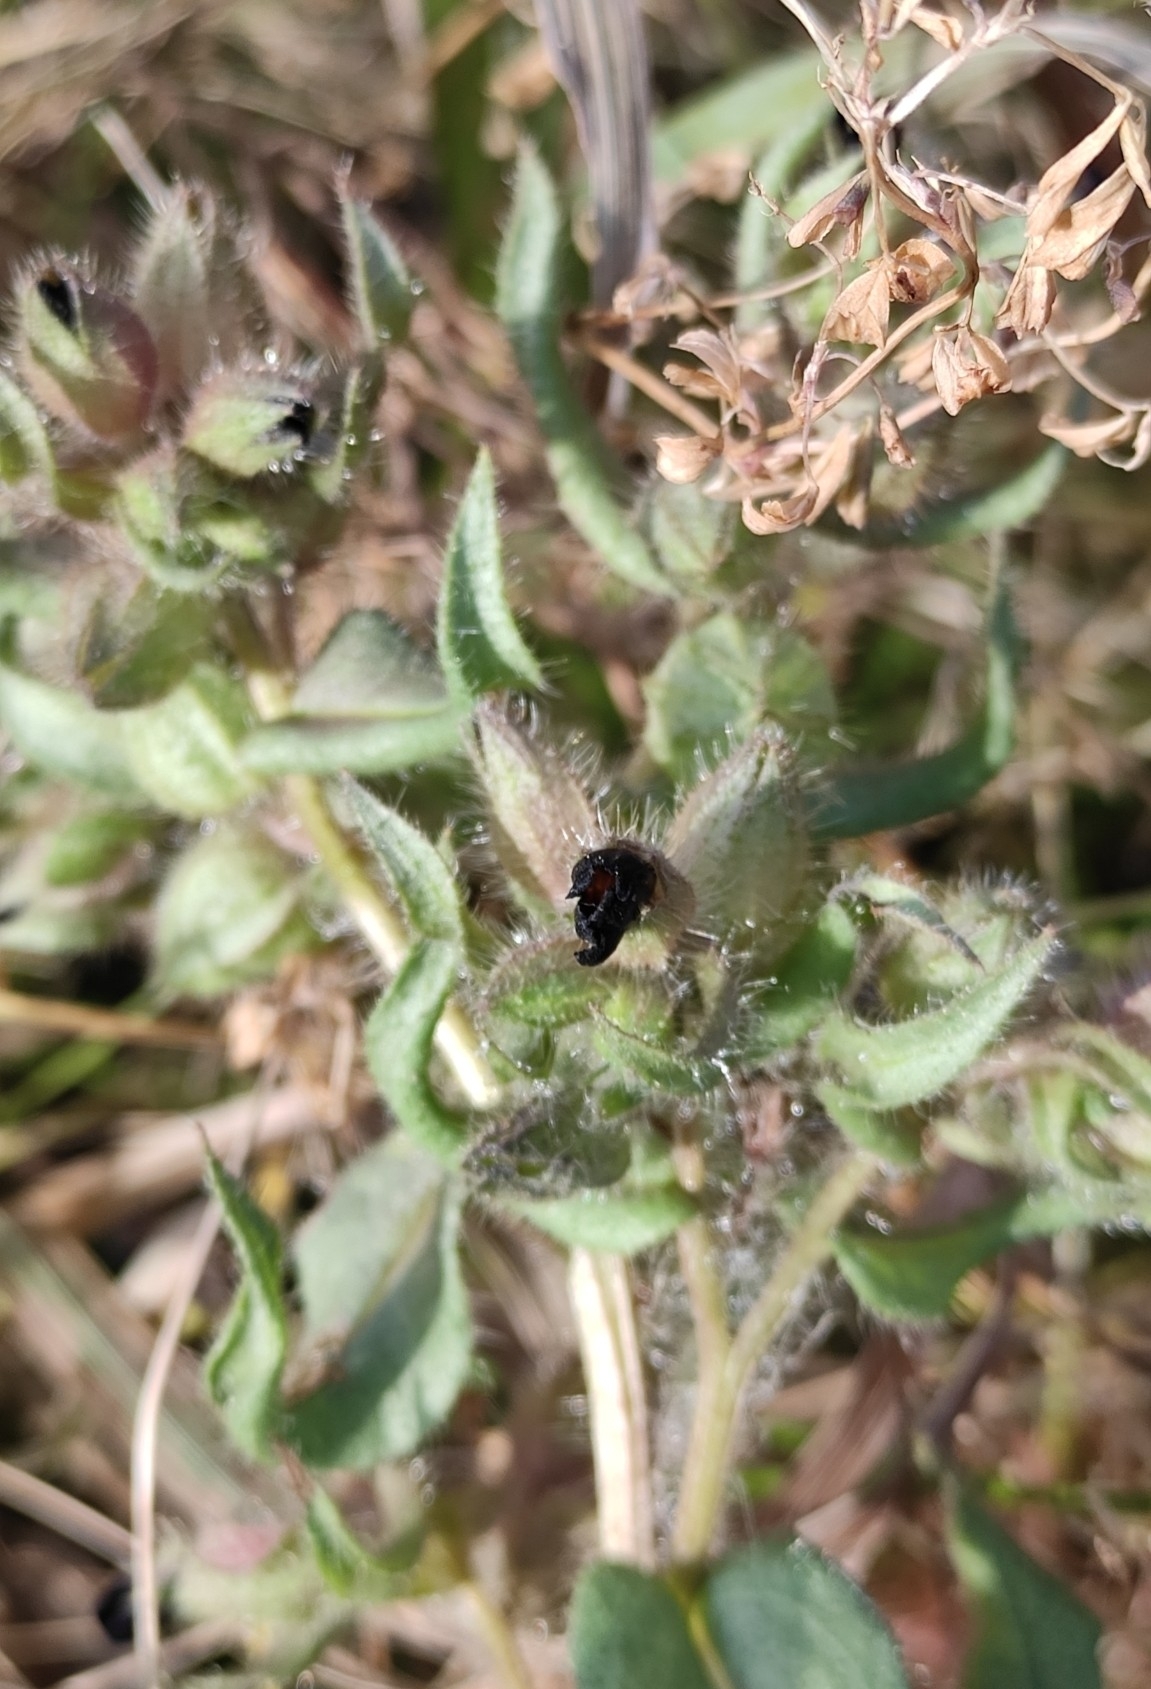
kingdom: Plantae
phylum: Tracheophyta
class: Magnoliopsida
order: Boraginales
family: Boraginaceae
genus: Nonea
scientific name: Nonea pulla
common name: Brown nonea
